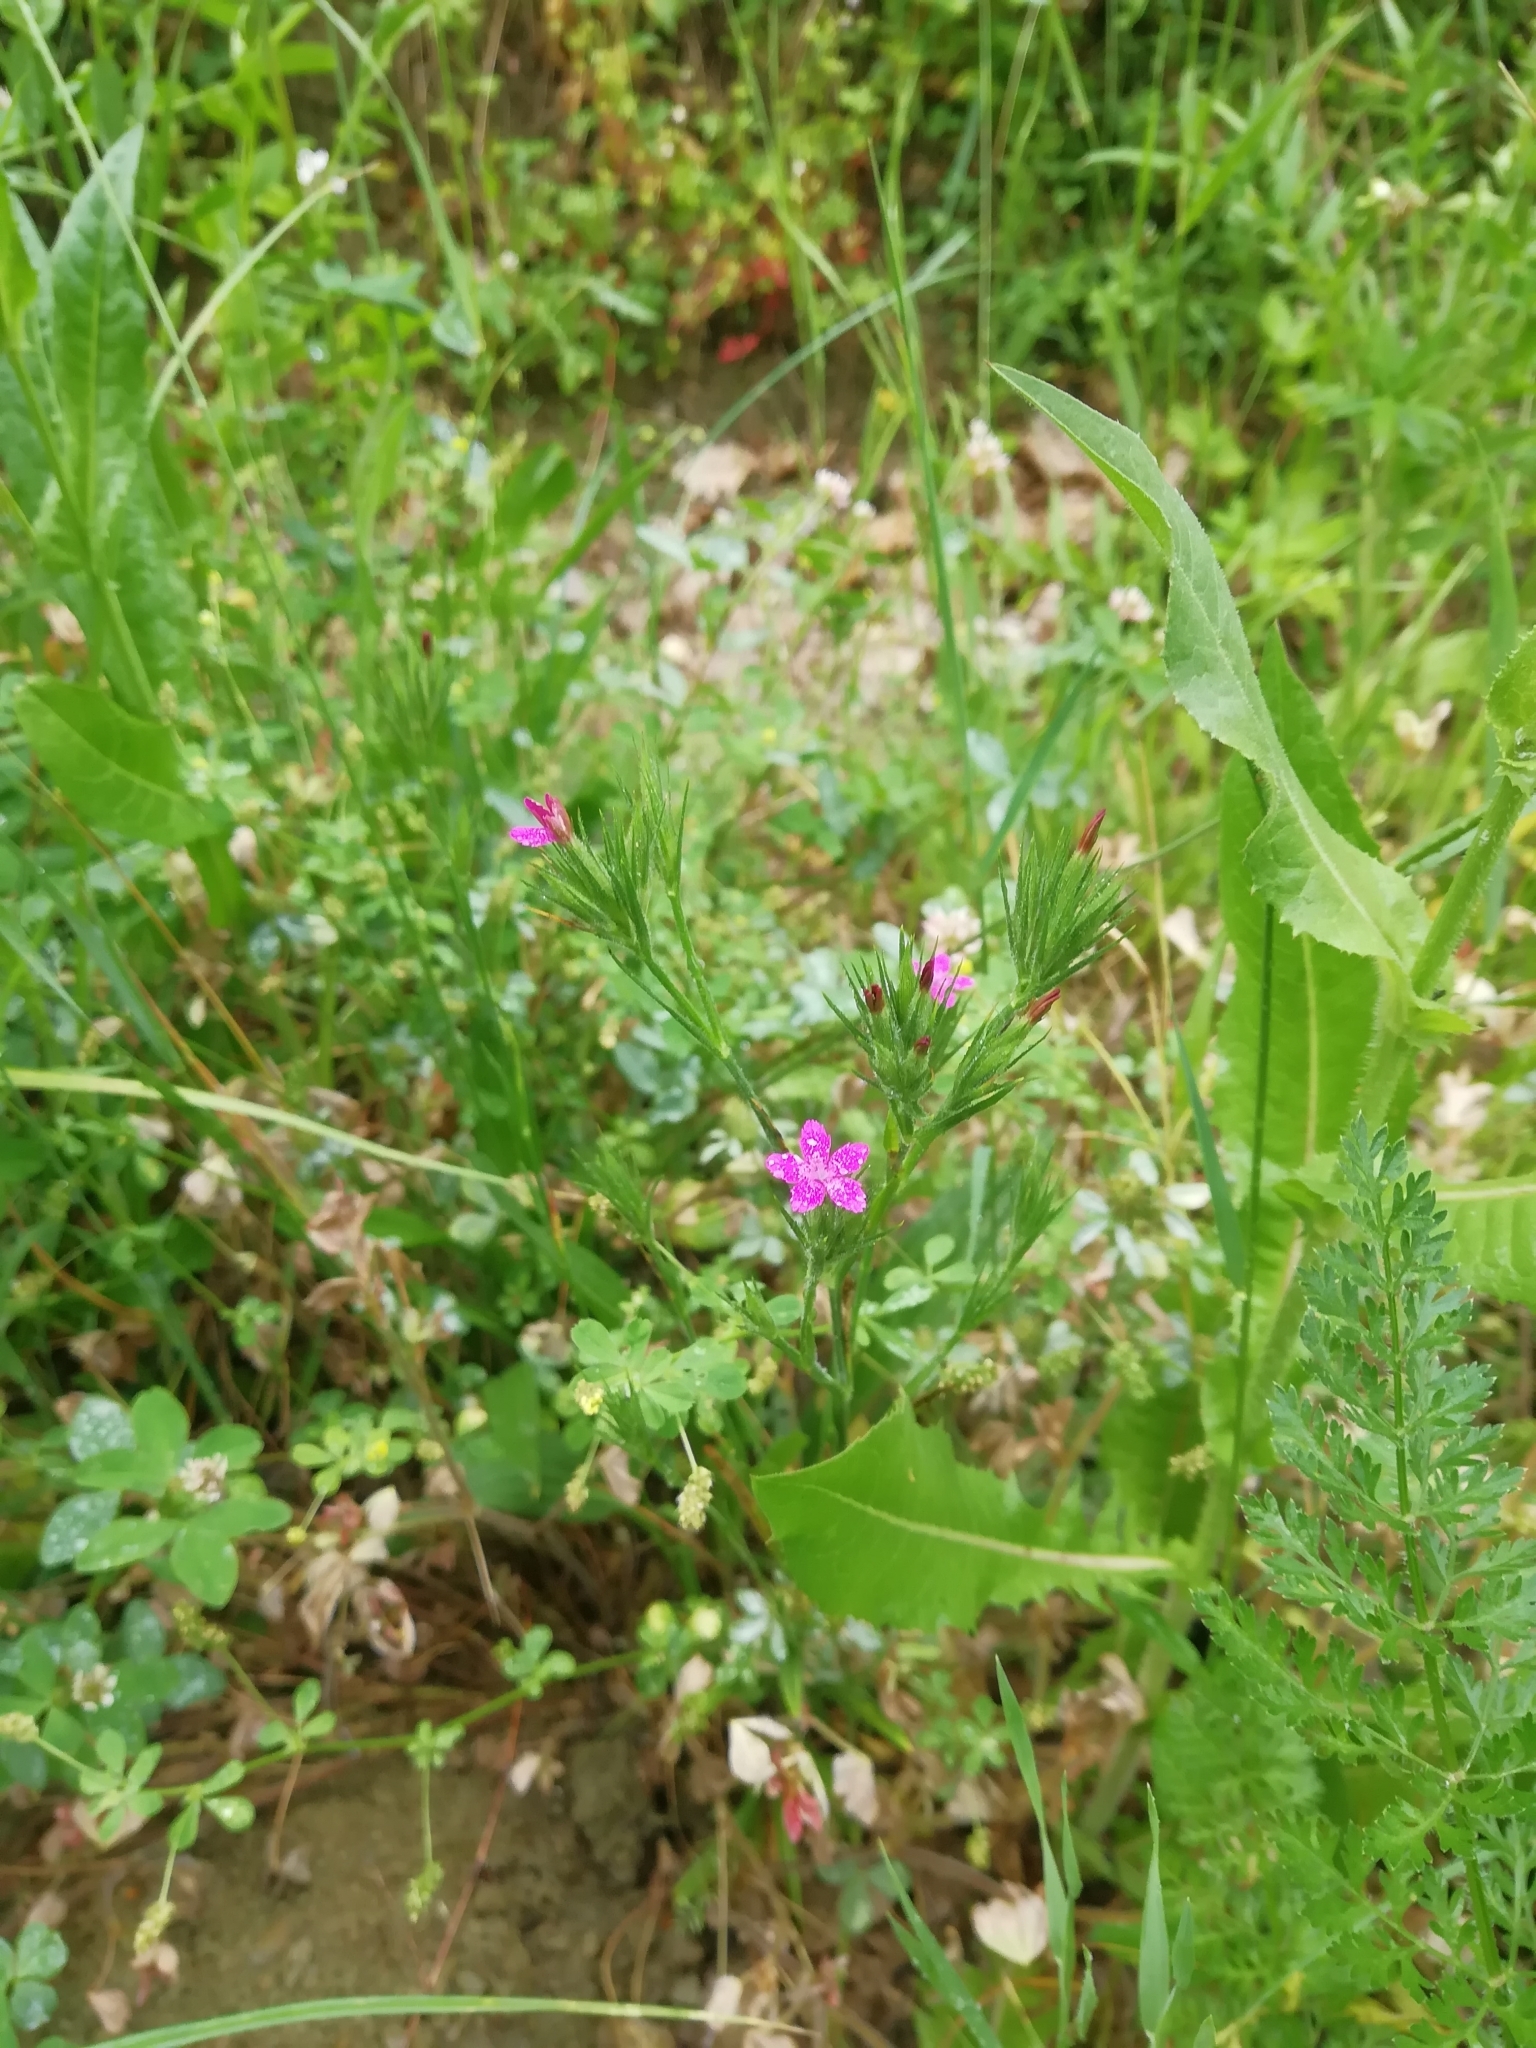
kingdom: Plantae
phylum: Tracheophyta
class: Magnoliopsida
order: Caryophyllales
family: Caryophyllaceae
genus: Dianthus
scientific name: Dianthus armeria
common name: Deptford pink
